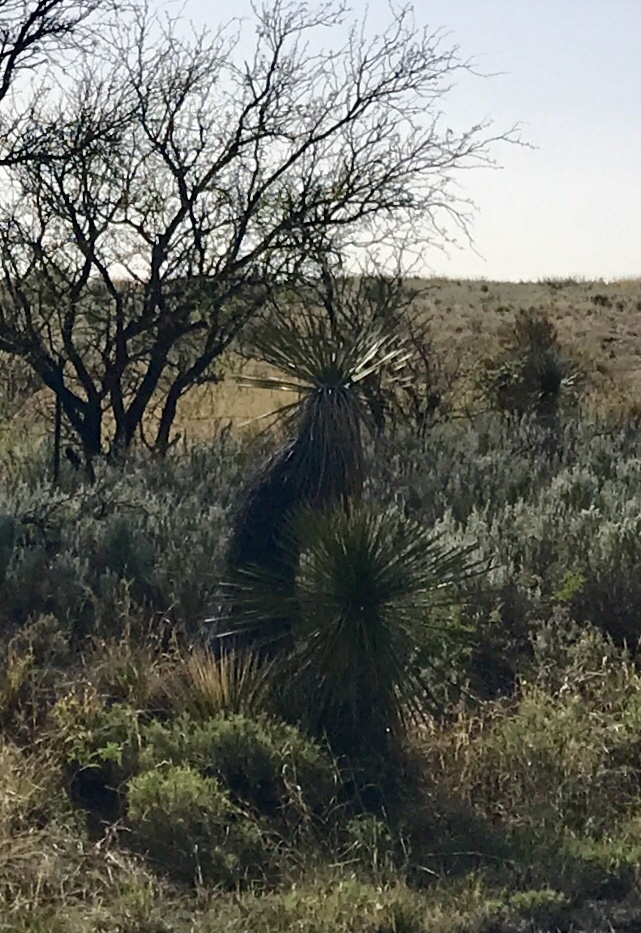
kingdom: Plantae
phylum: Tracheophyta
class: Liliopsida
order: Asparagales
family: Asparagaceae
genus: Yucca
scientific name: Yucca elata
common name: Palmella
